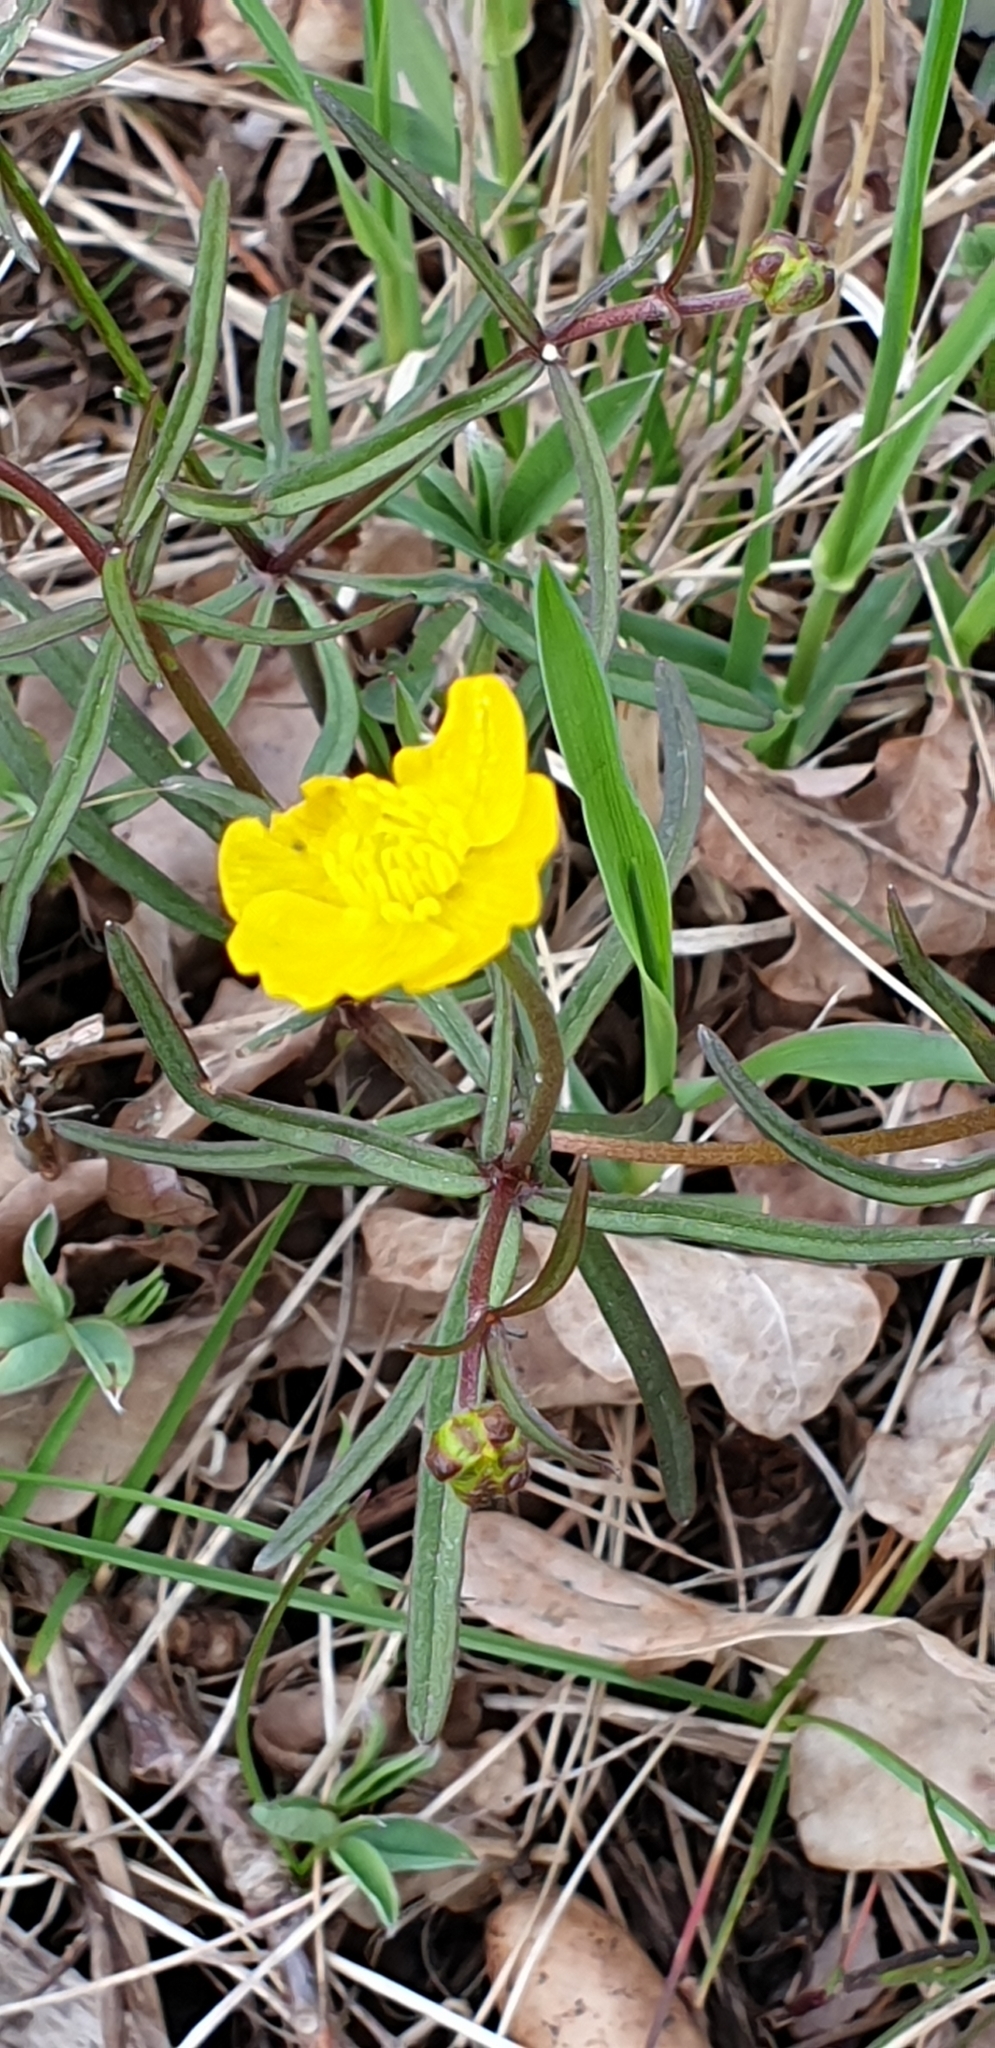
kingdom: Plantae
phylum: Tracheophyta
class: Magnoliopsida
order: Ranunculales
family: Ranunculaceae
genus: Ranunculus
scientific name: Ranunculus auricomus
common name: Goldilocks buttercup
